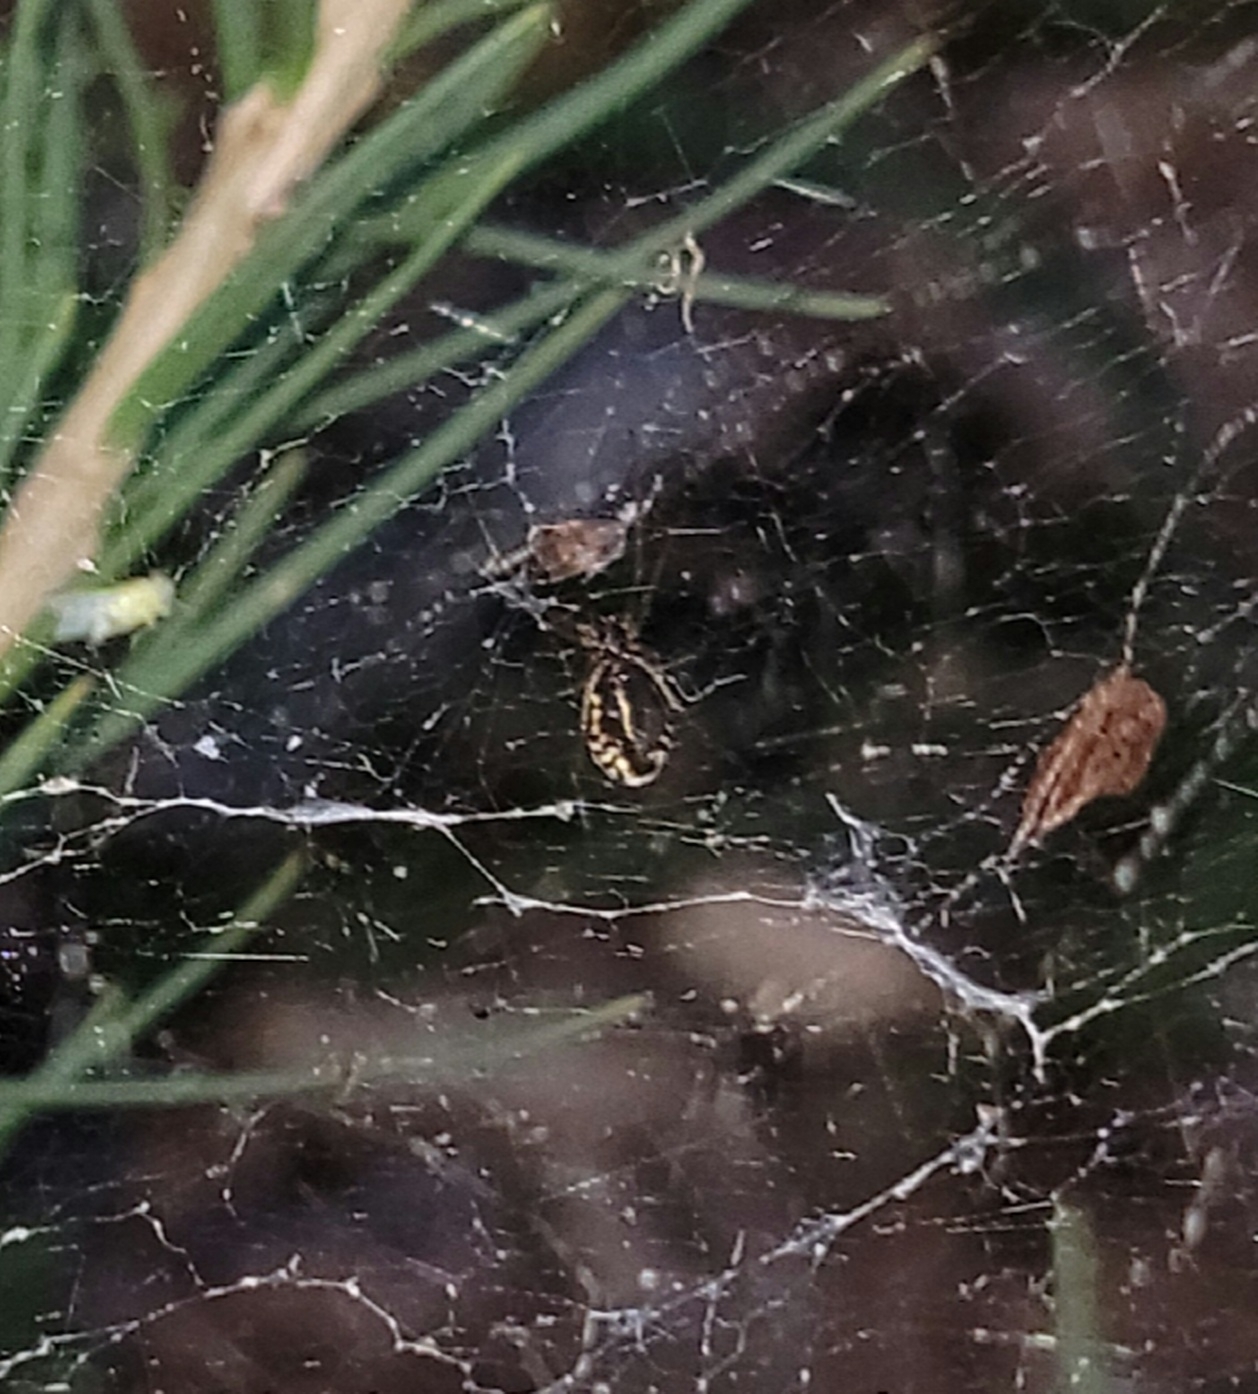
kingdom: Animalia
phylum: Arthropoda
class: Arachnida
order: Araneae
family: Linyphiidae
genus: Frontinella
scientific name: Frontinella pyramitela
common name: Bowl-and-doily spider
